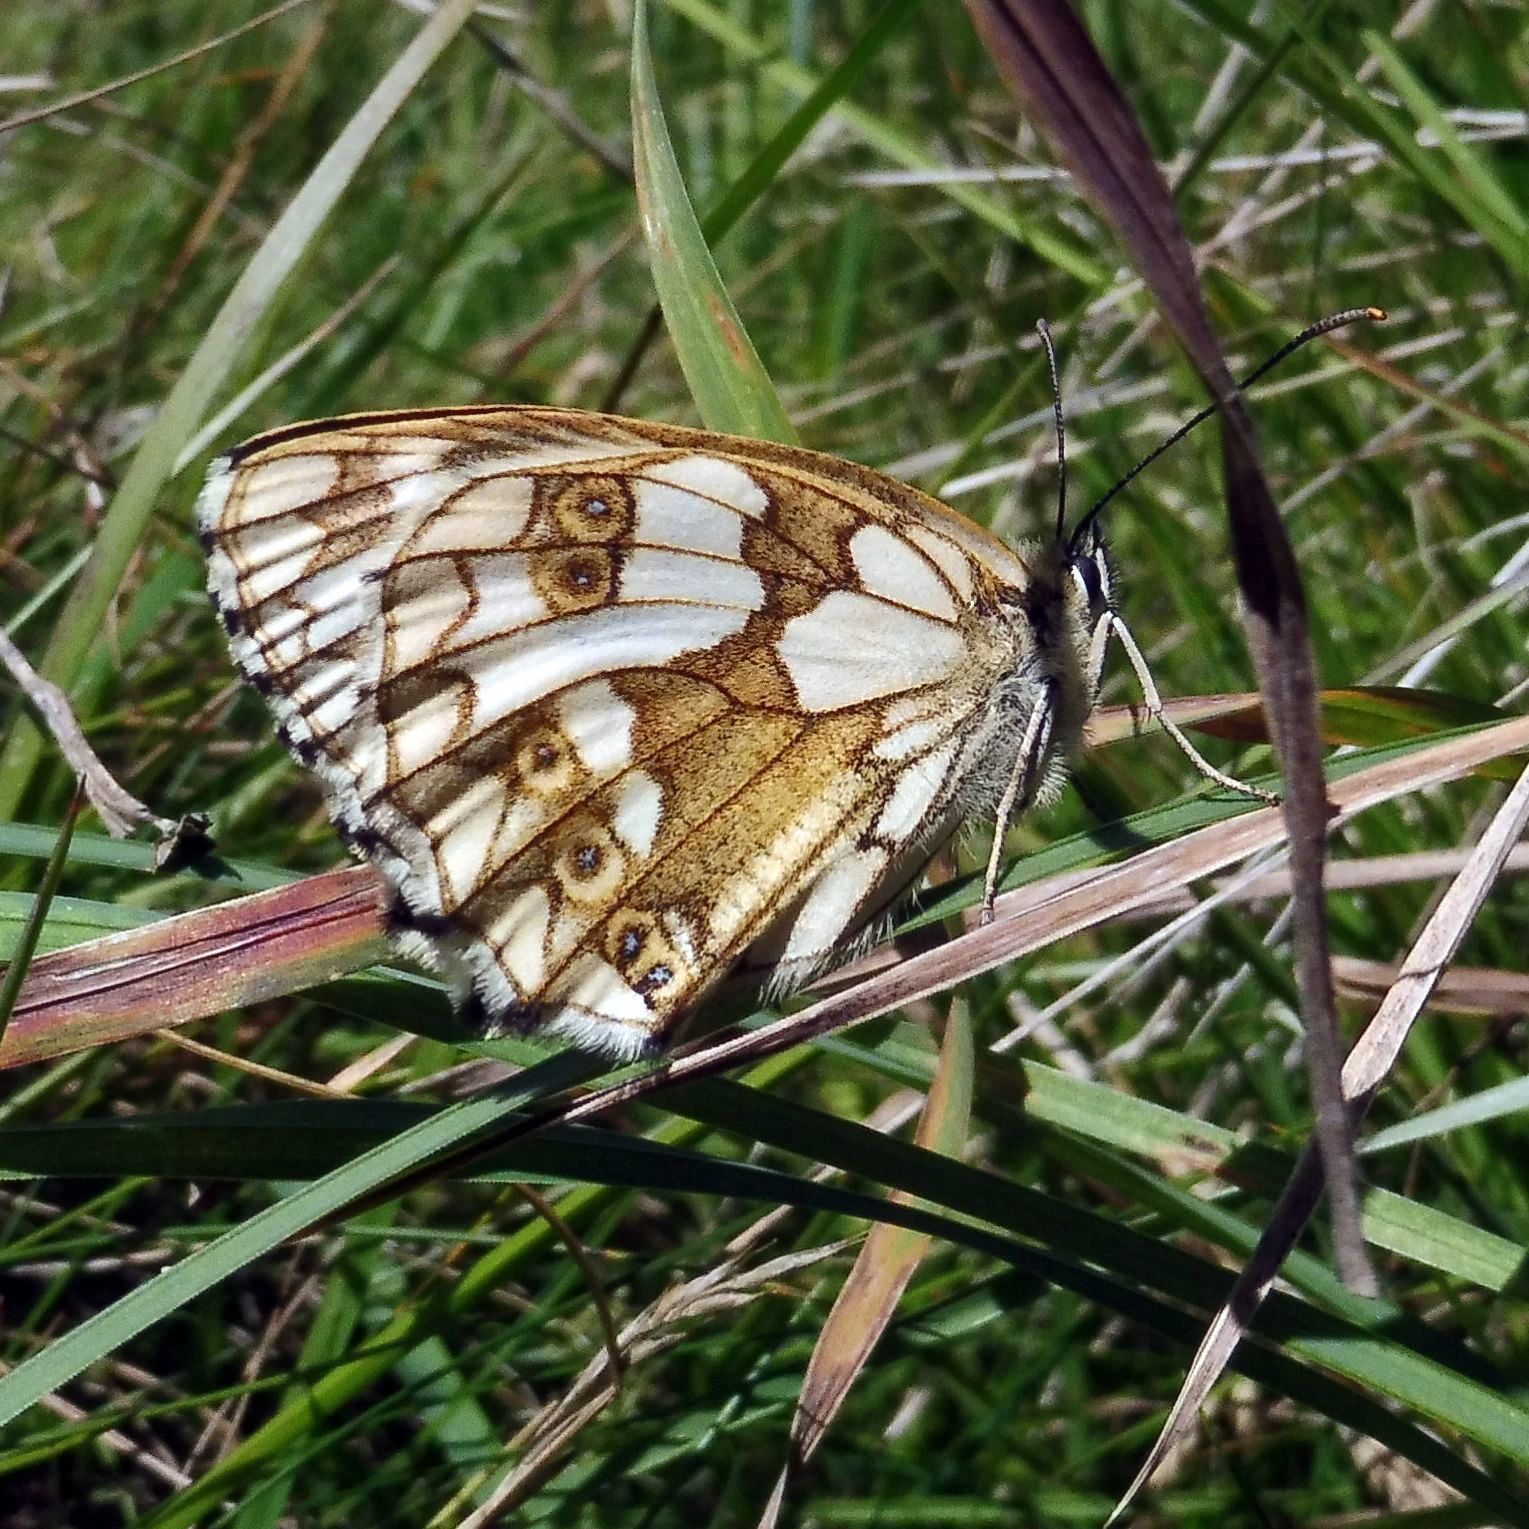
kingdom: Animalia
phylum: Arthropoda
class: Insecta
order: Lepidoptera
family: Nymphalidae
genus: Melanargia
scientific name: Melanargia galathea
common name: Marbled white
